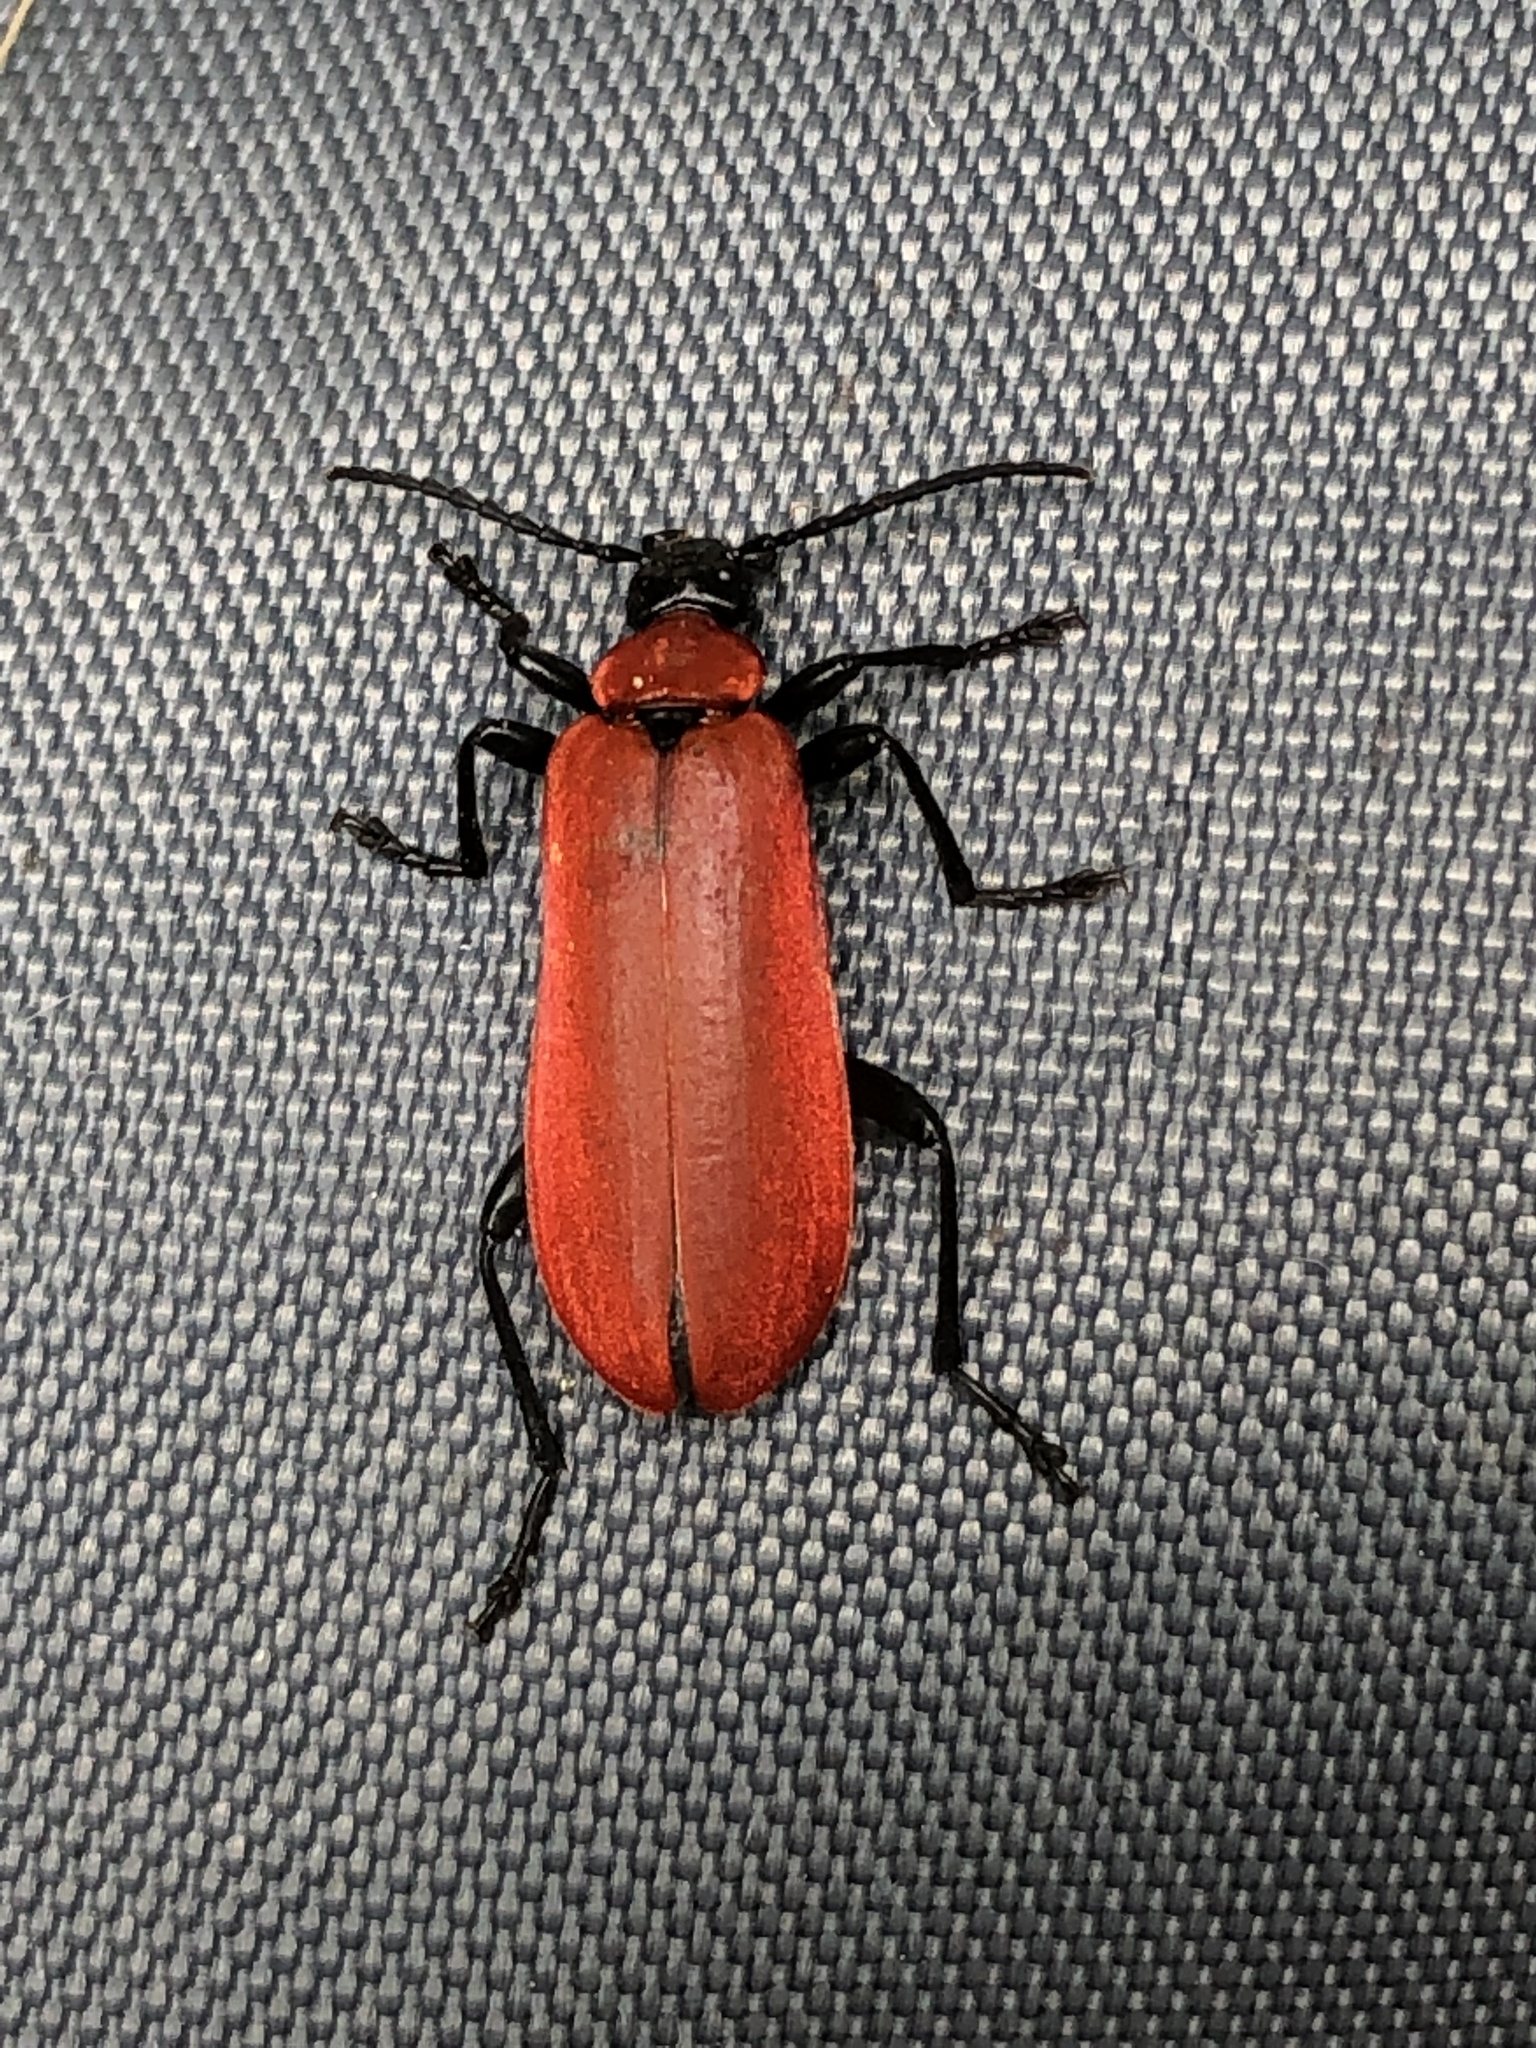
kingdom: Animalia
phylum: Arthropoda
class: Insecta
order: Coleoptera
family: Pyrochroidae
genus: Pyrochroa
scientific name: Pyrochroa coccinea
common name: Black-headed cardinal beetle
